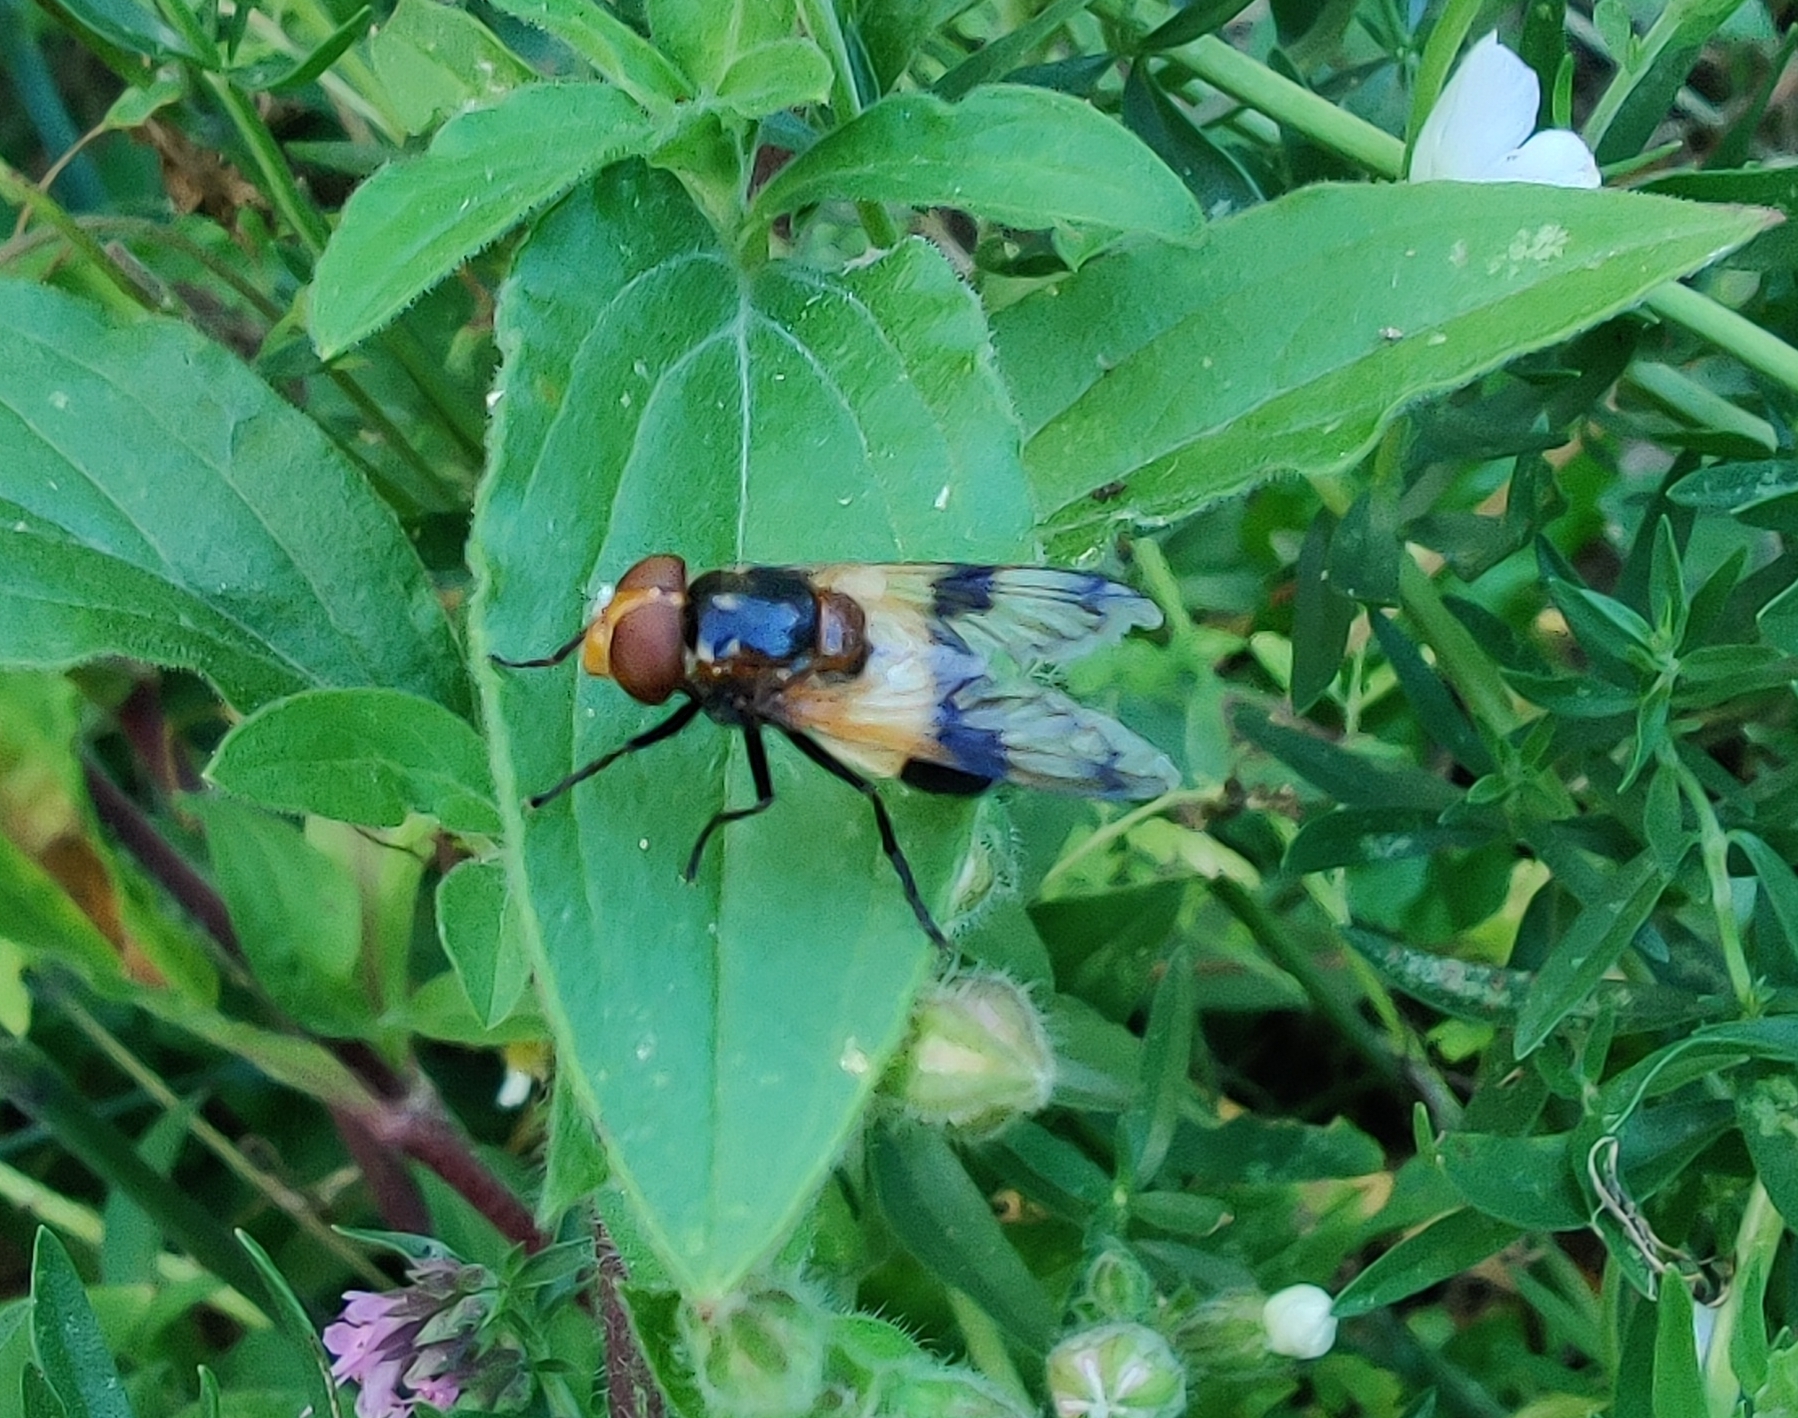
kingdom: Animalia
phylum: Arthropoda
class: Insecta
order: Diptera
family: Syrphidae
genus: Volucella
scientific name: Volucella pellucens
